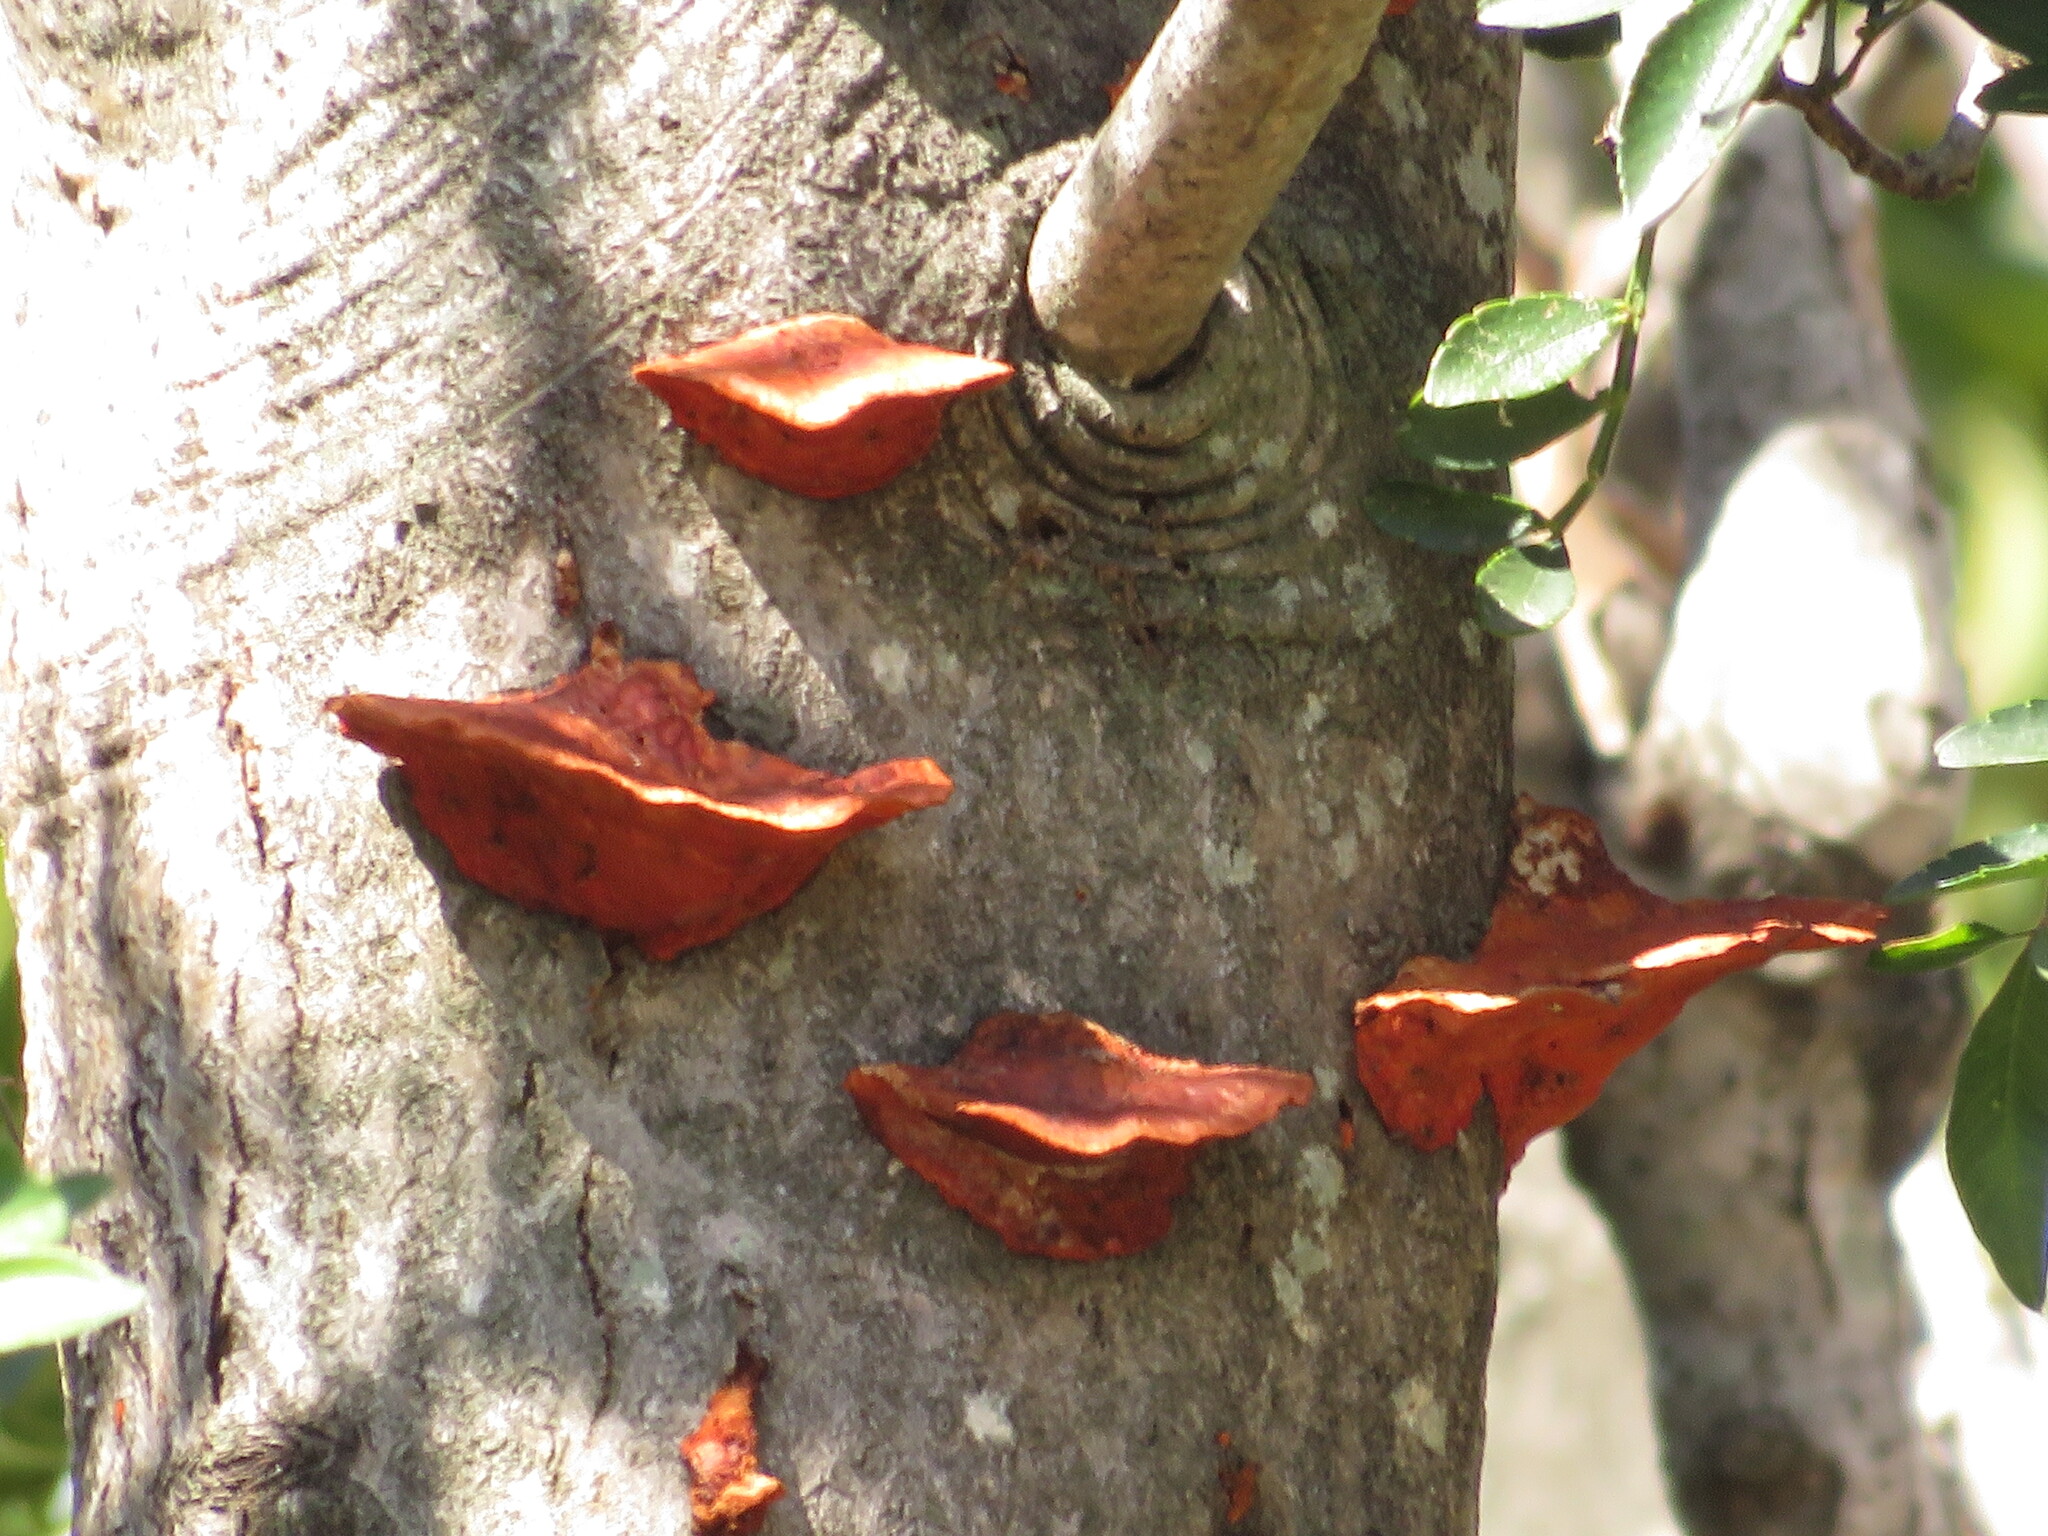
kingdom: Fungi
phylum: Basidiomycota
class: Agaricomycetes
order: Polyporales
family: Polyporaceae
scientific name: Polyporaceae
